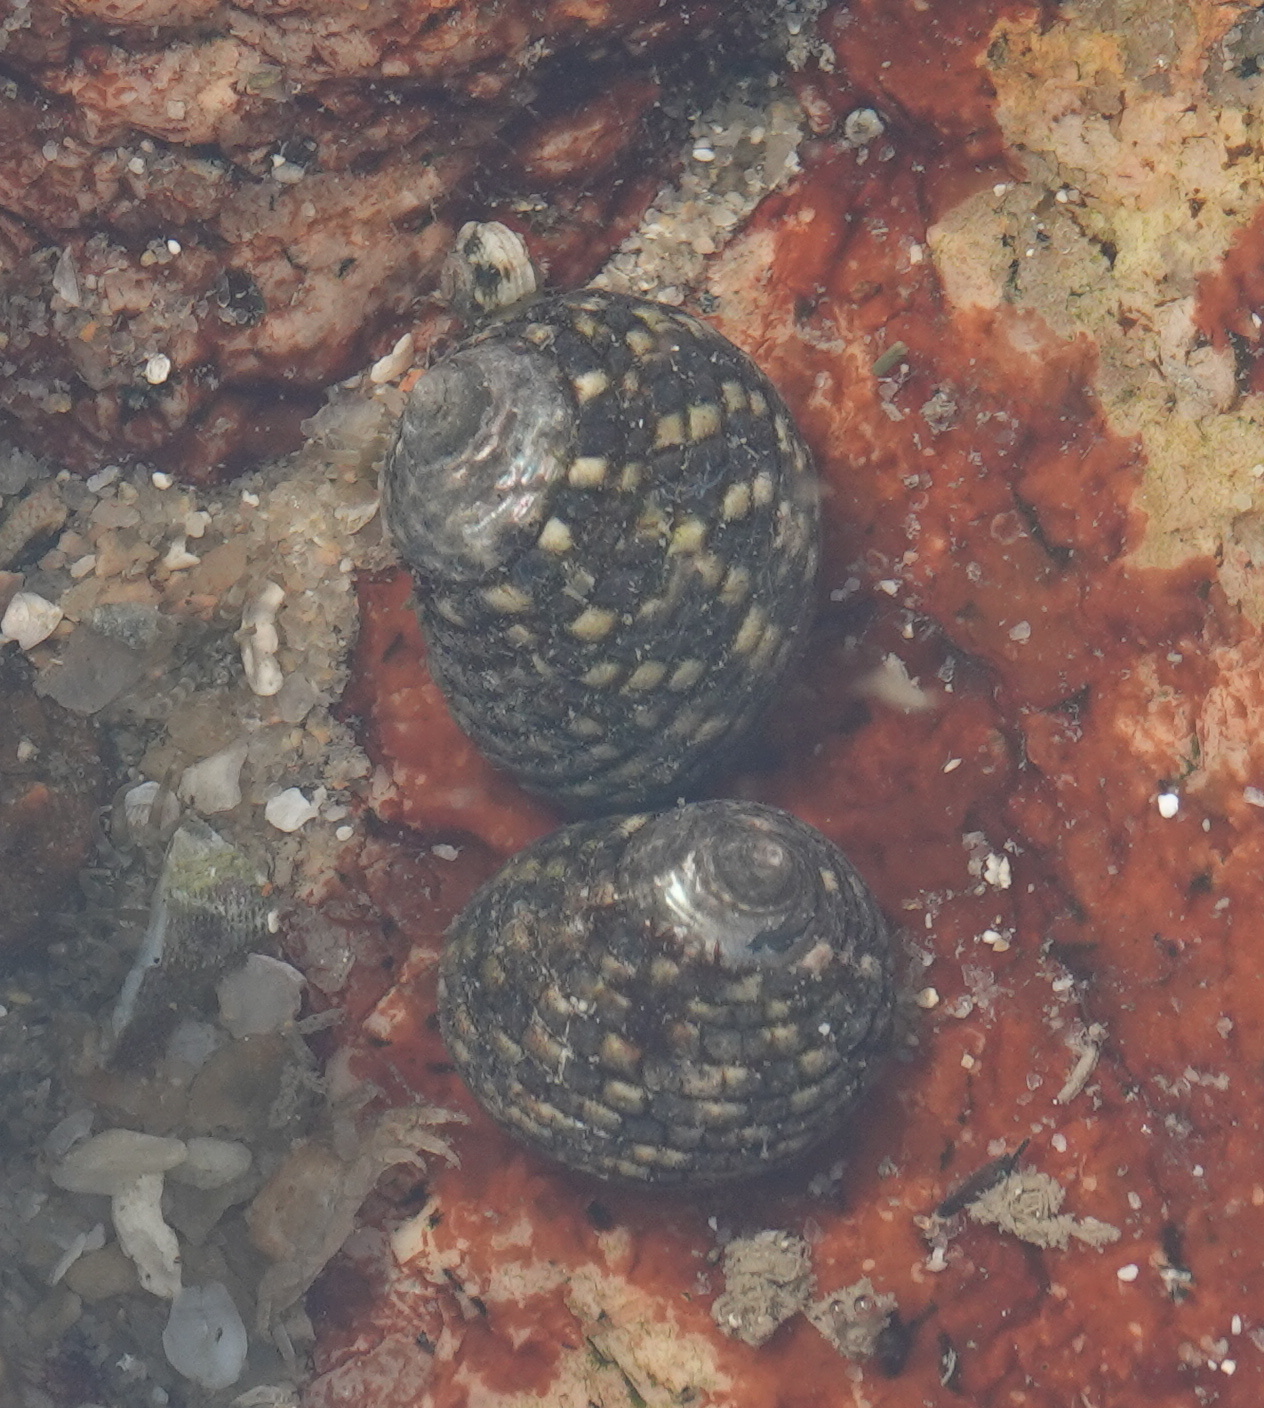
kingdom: Animalia
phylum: Mollusca
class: Gastropoda
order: Trochida
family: Trochidae
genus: Monodonta
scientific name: Monodonta labio
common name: Labio
